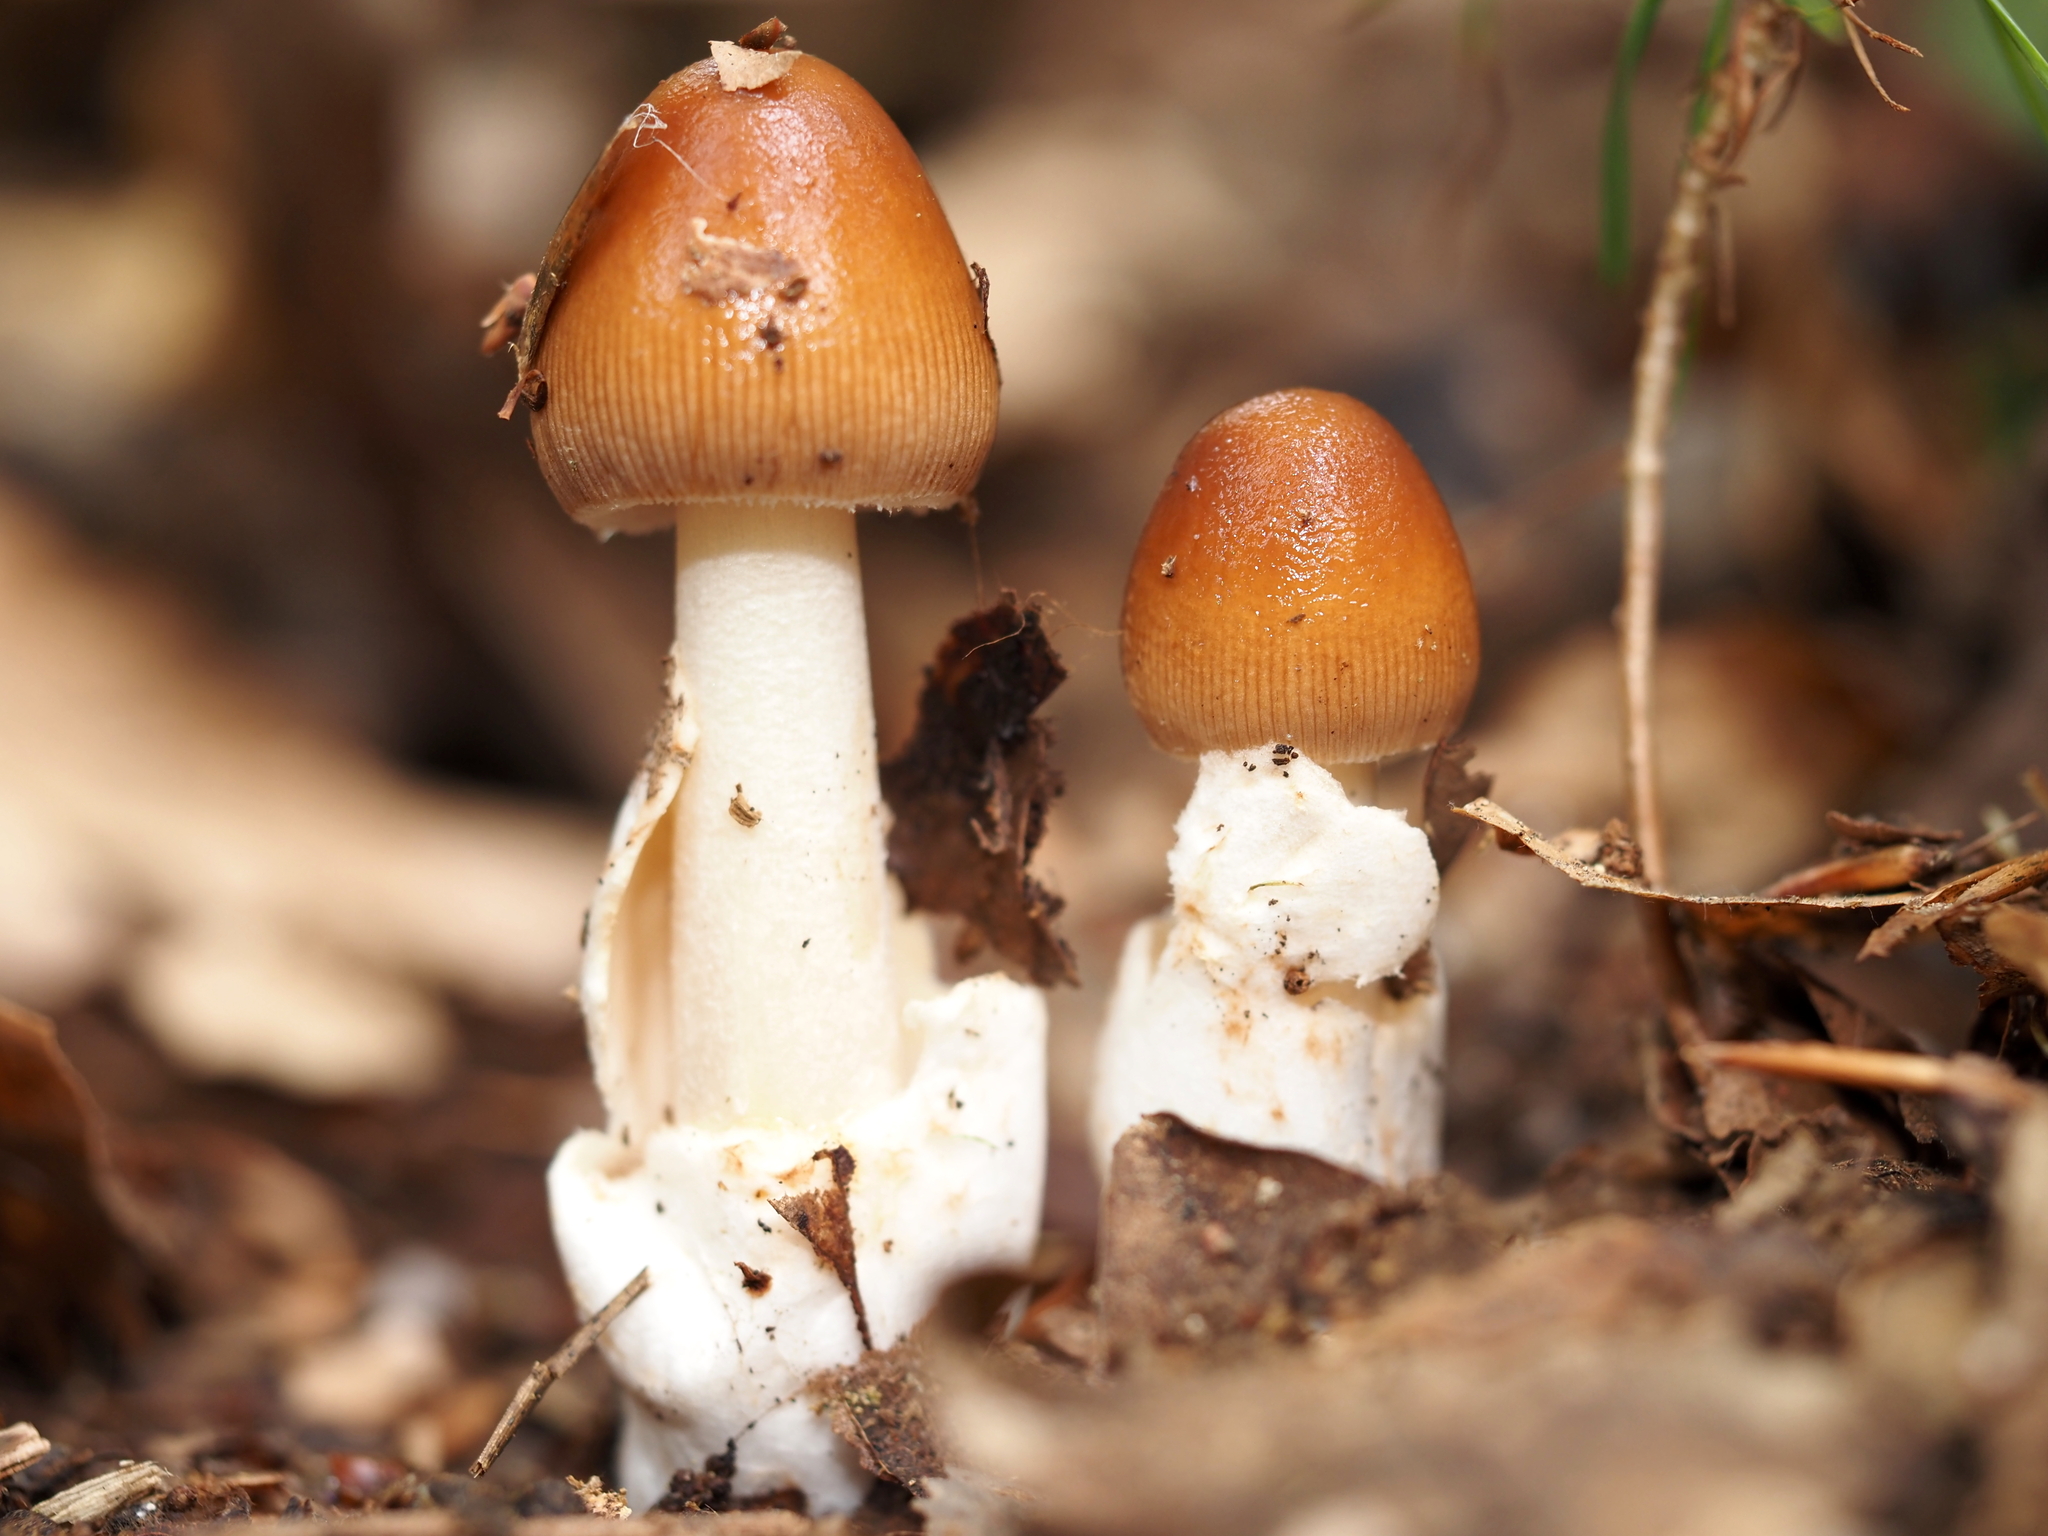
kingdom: Fungi
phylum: Basidiomycota
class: Agaricomycetes
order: Agaricales
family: Amanitaceae
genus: Amanita
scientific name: Amanita fulva
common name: Tawny grisette
